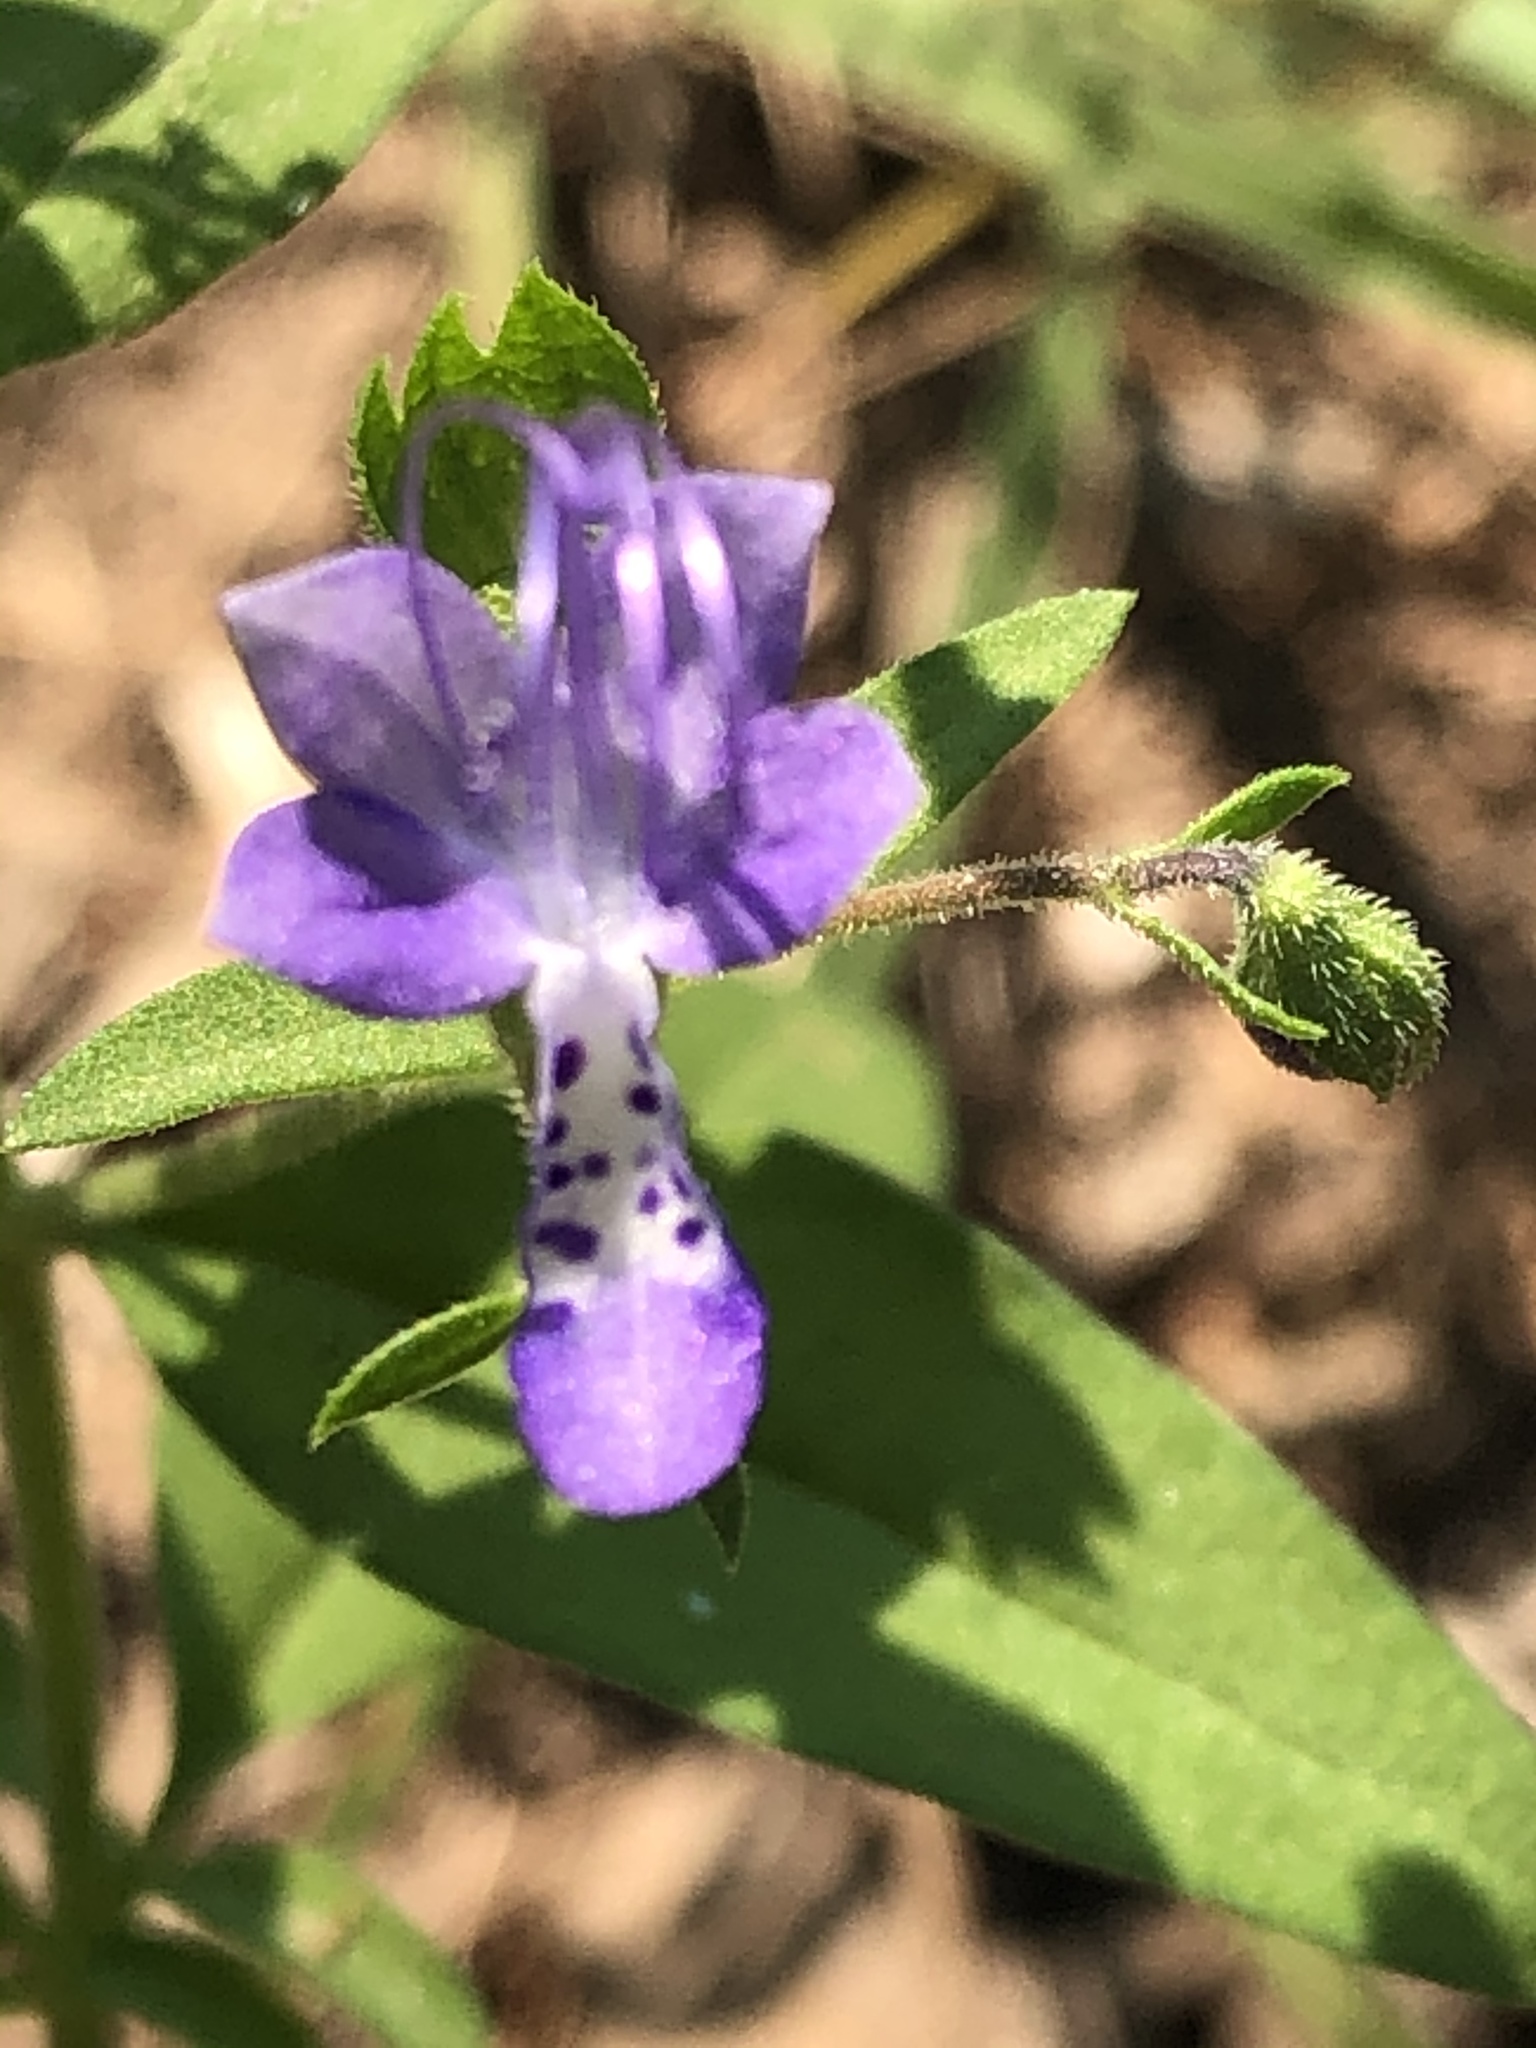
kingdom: Plantae
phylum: Tracheophyta
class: Magnoliopsida
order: Lamiales
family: Lamiaceae
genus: Trichostema
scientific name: Trichostema dichotomum
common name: Bastard pennyroyal
